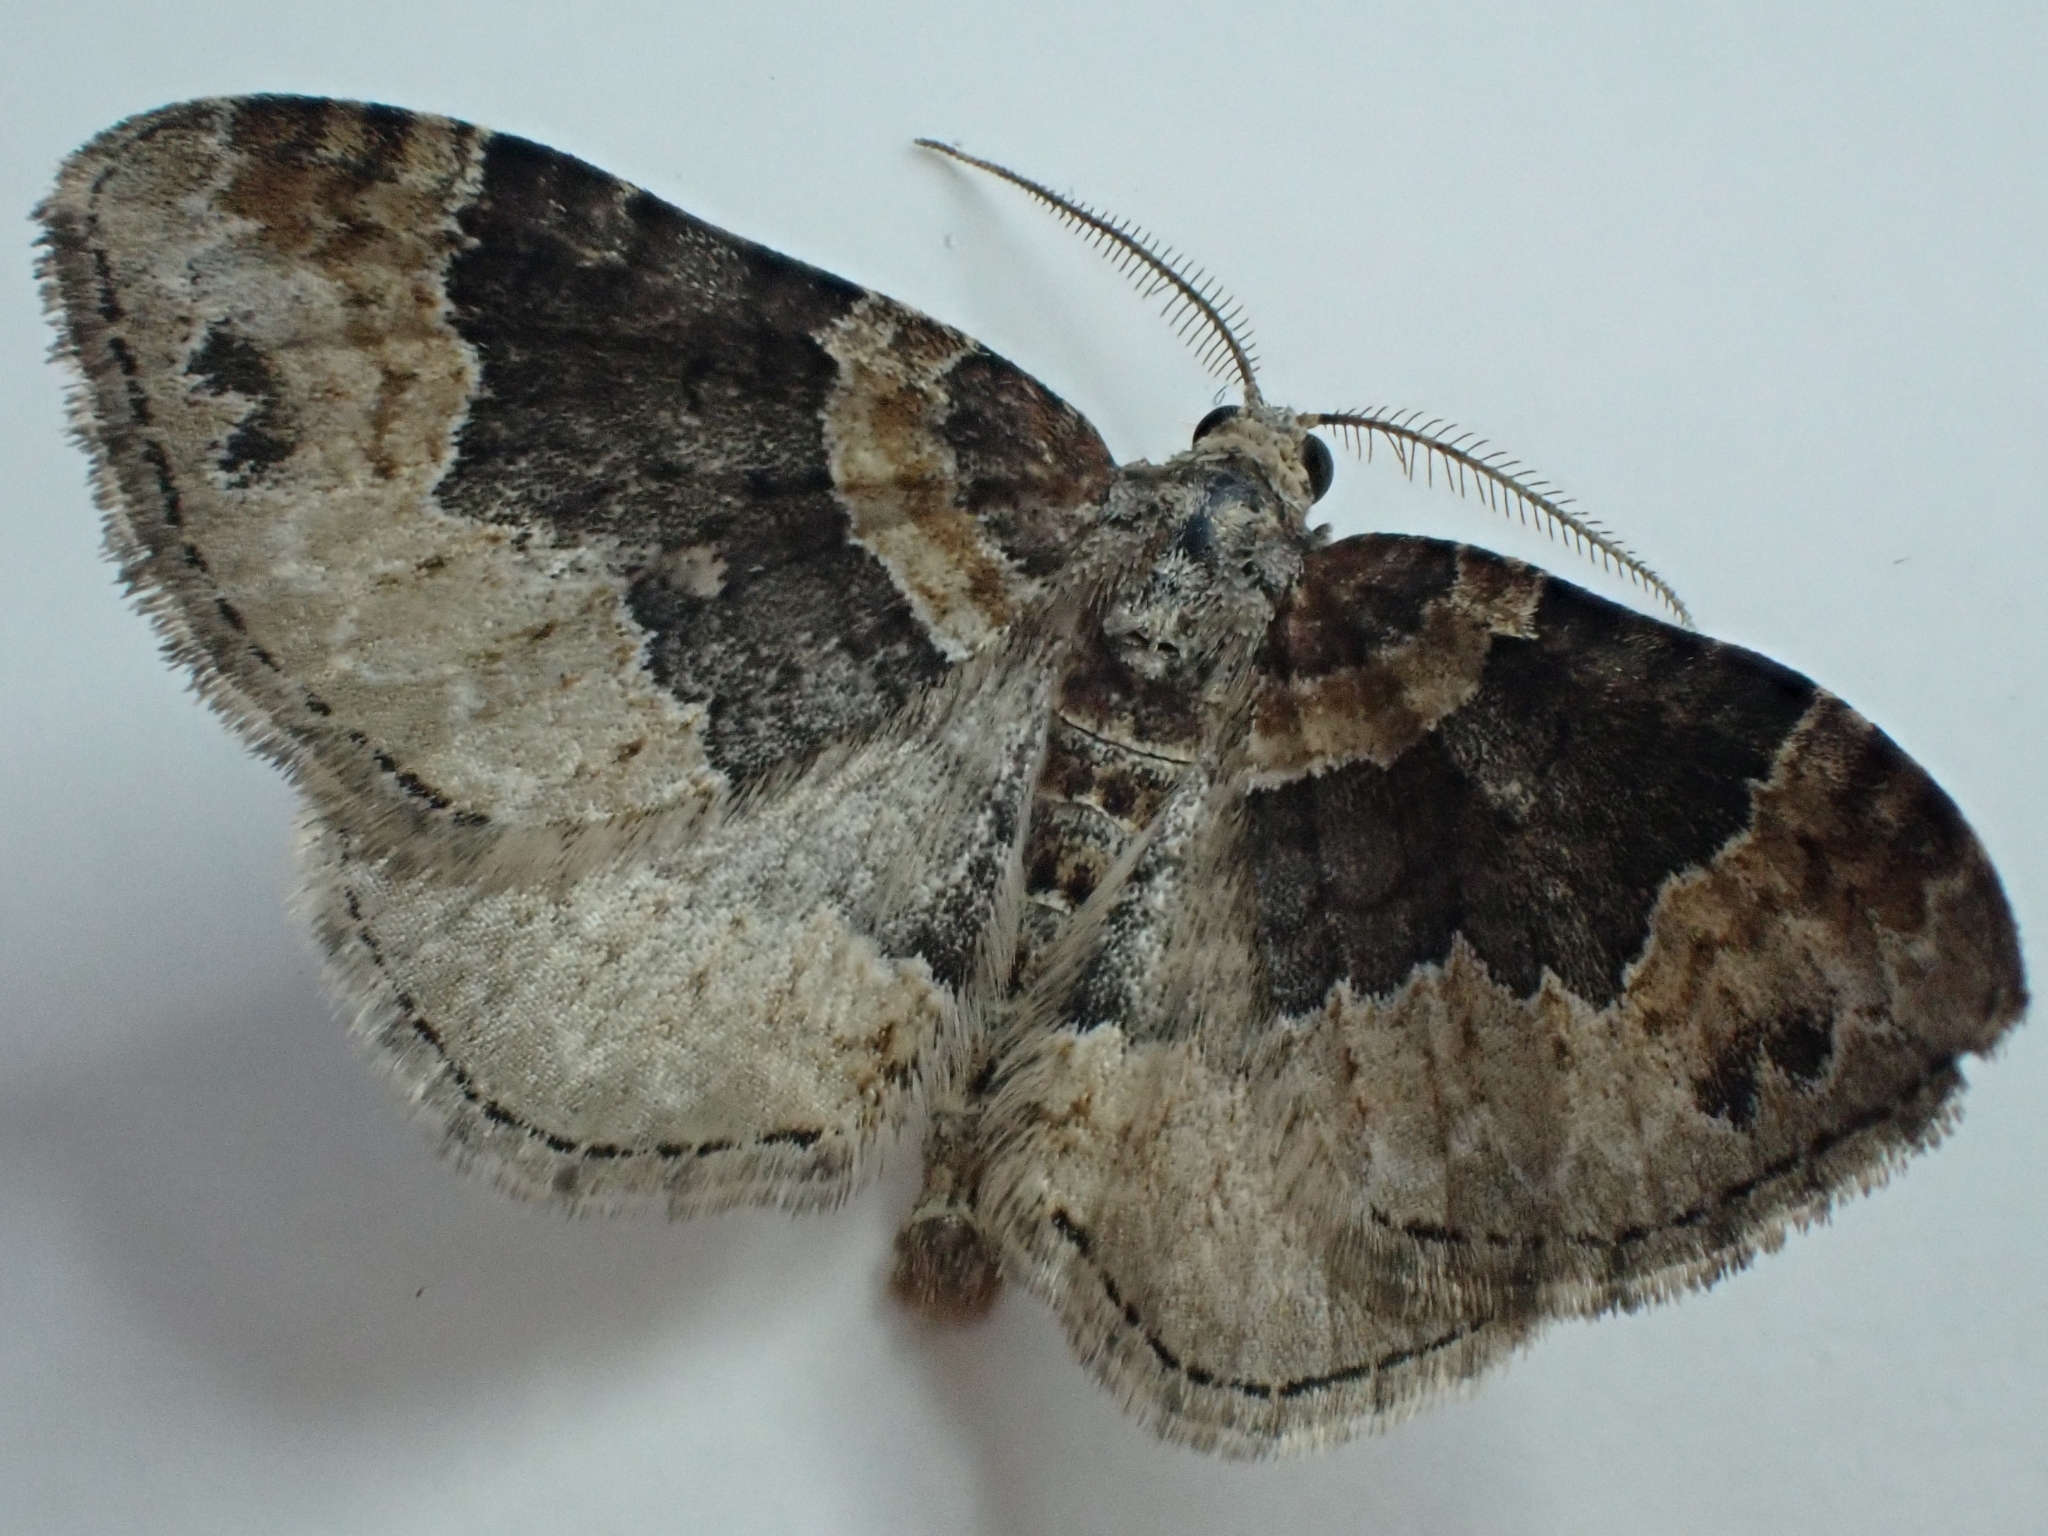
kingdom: Animalia
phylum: Arthropoda
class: Insecta
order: Lepidoptera
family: Geometridae
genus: Xanthorhoe
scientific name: Xanthorhoe ferrugata
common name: Dark-barred twin-spot carpet
